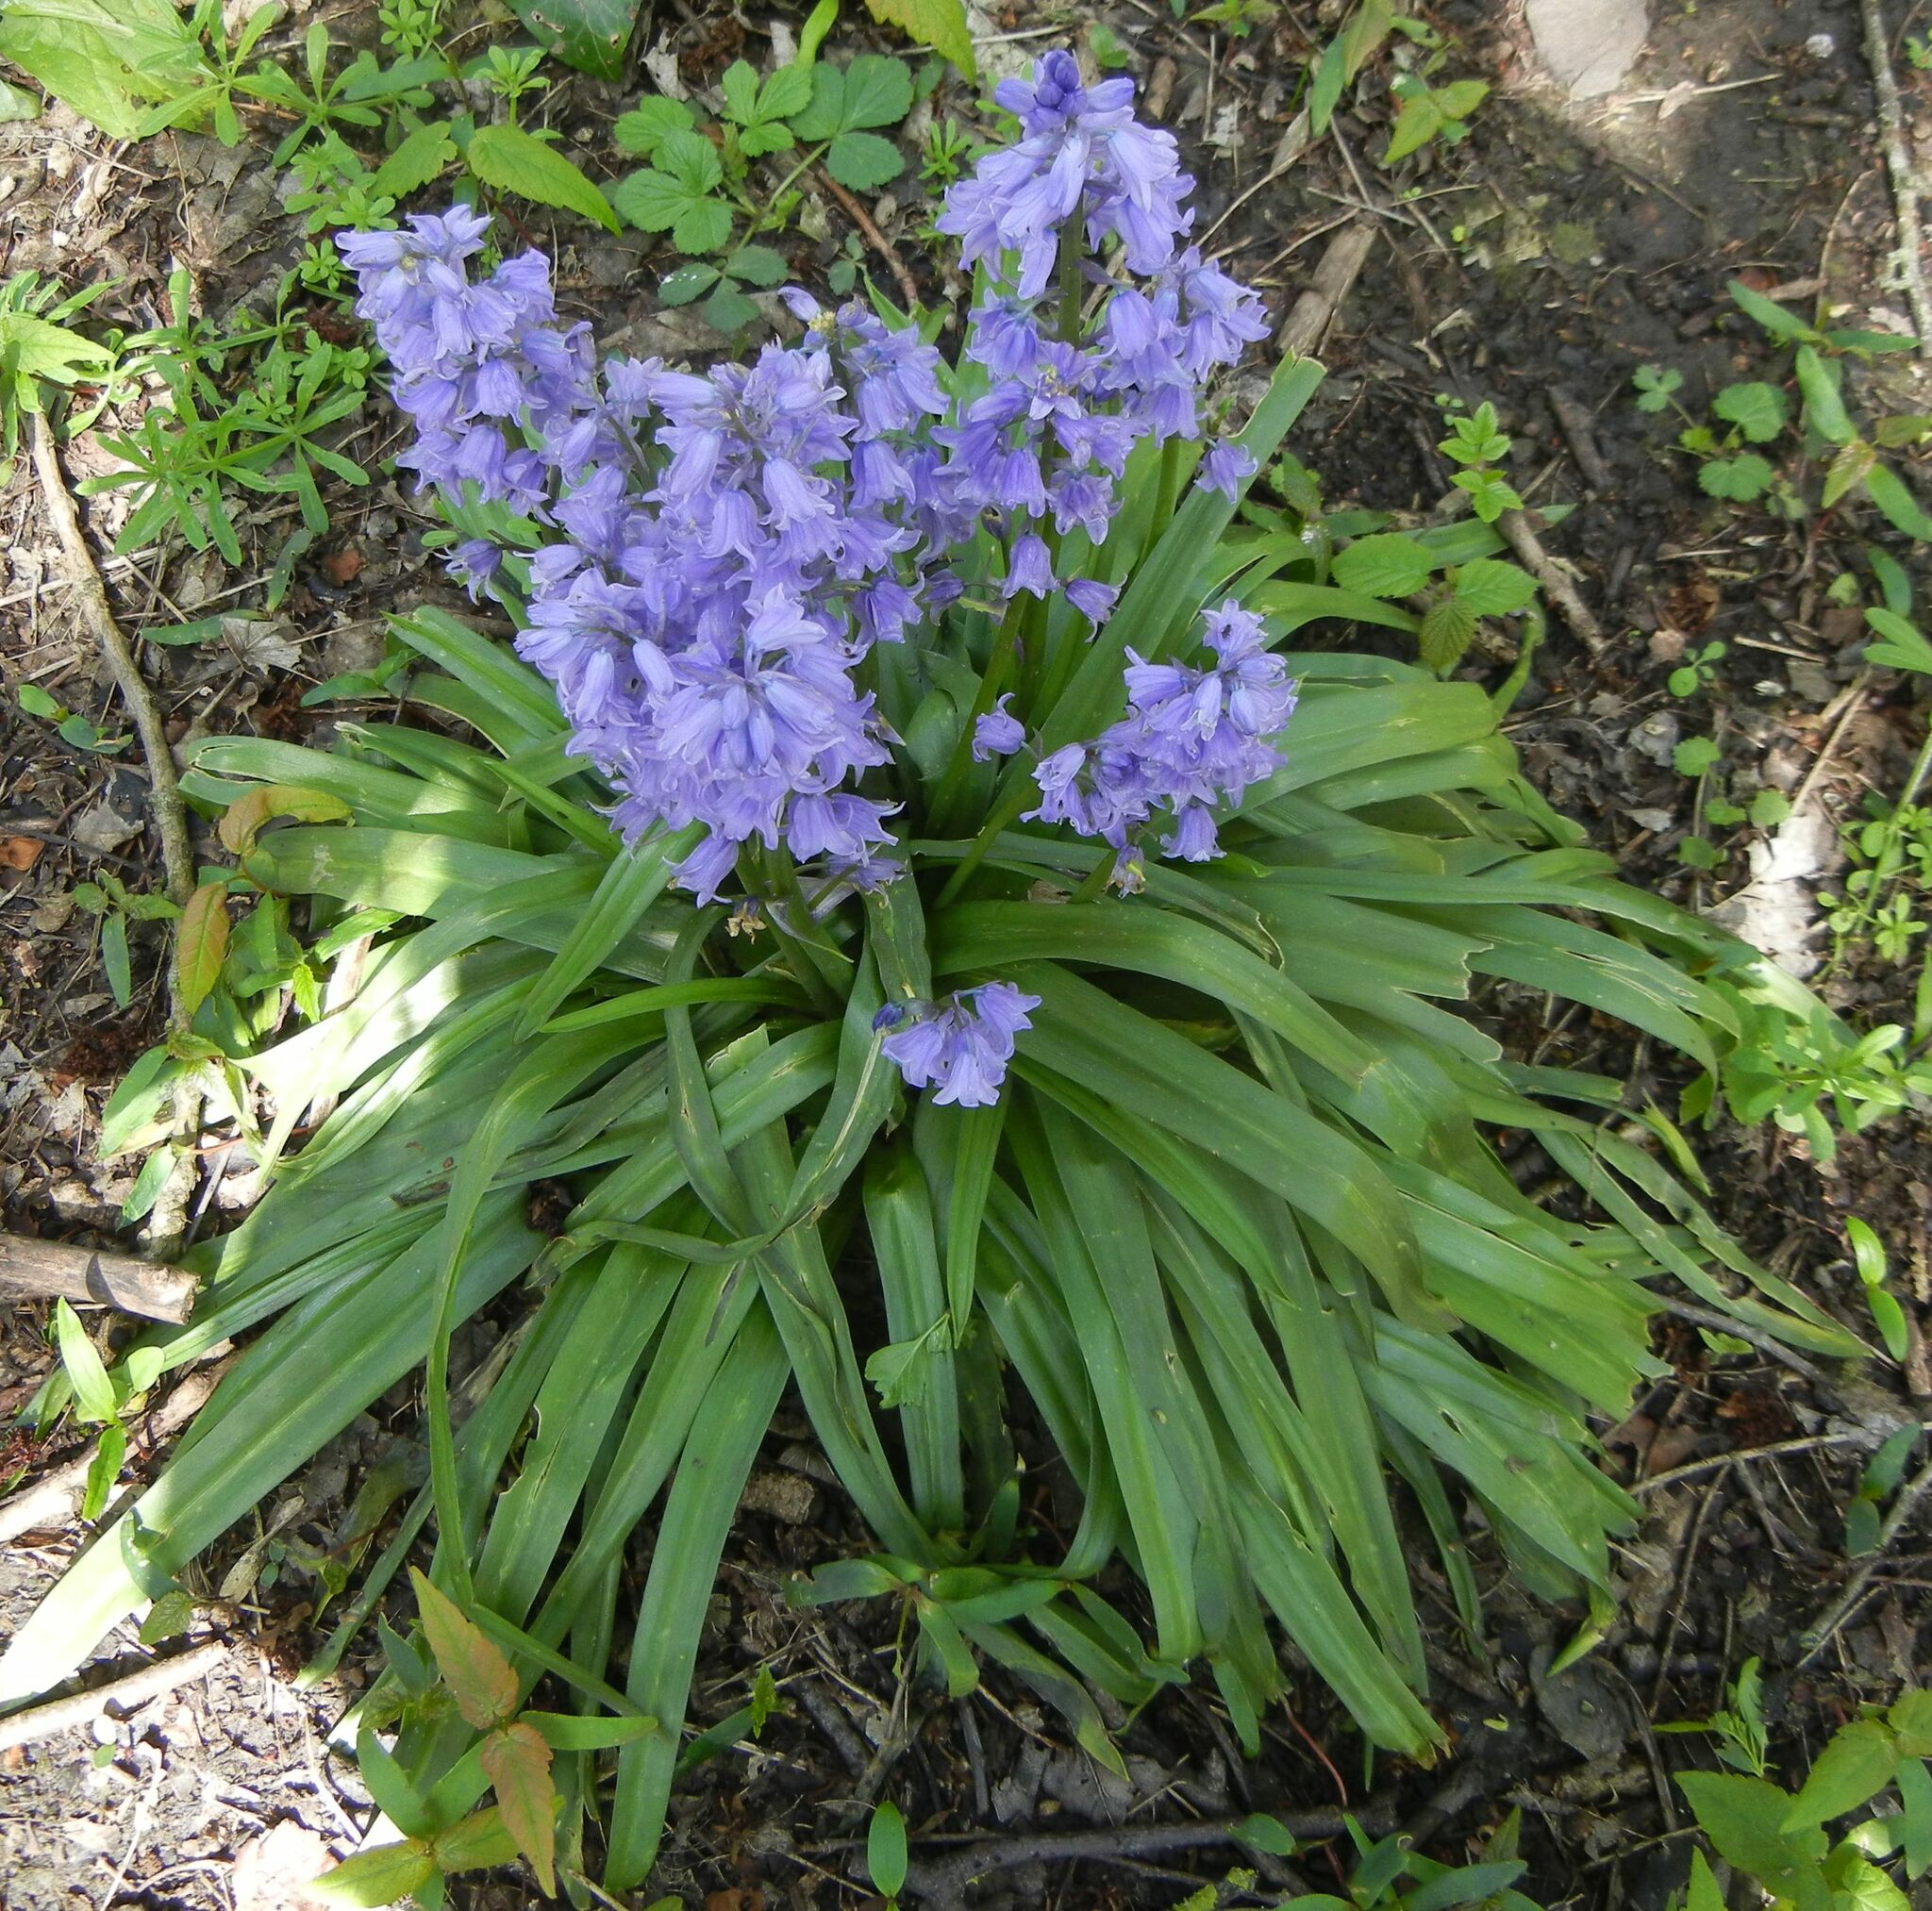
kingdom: Plantae
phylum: Tracheophyta
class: Liliopsida
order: Asparagales
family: Asparagaceae
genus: Hyacinthoides
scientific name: Hyacinthoides massartiana
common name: Hyacinthoides
